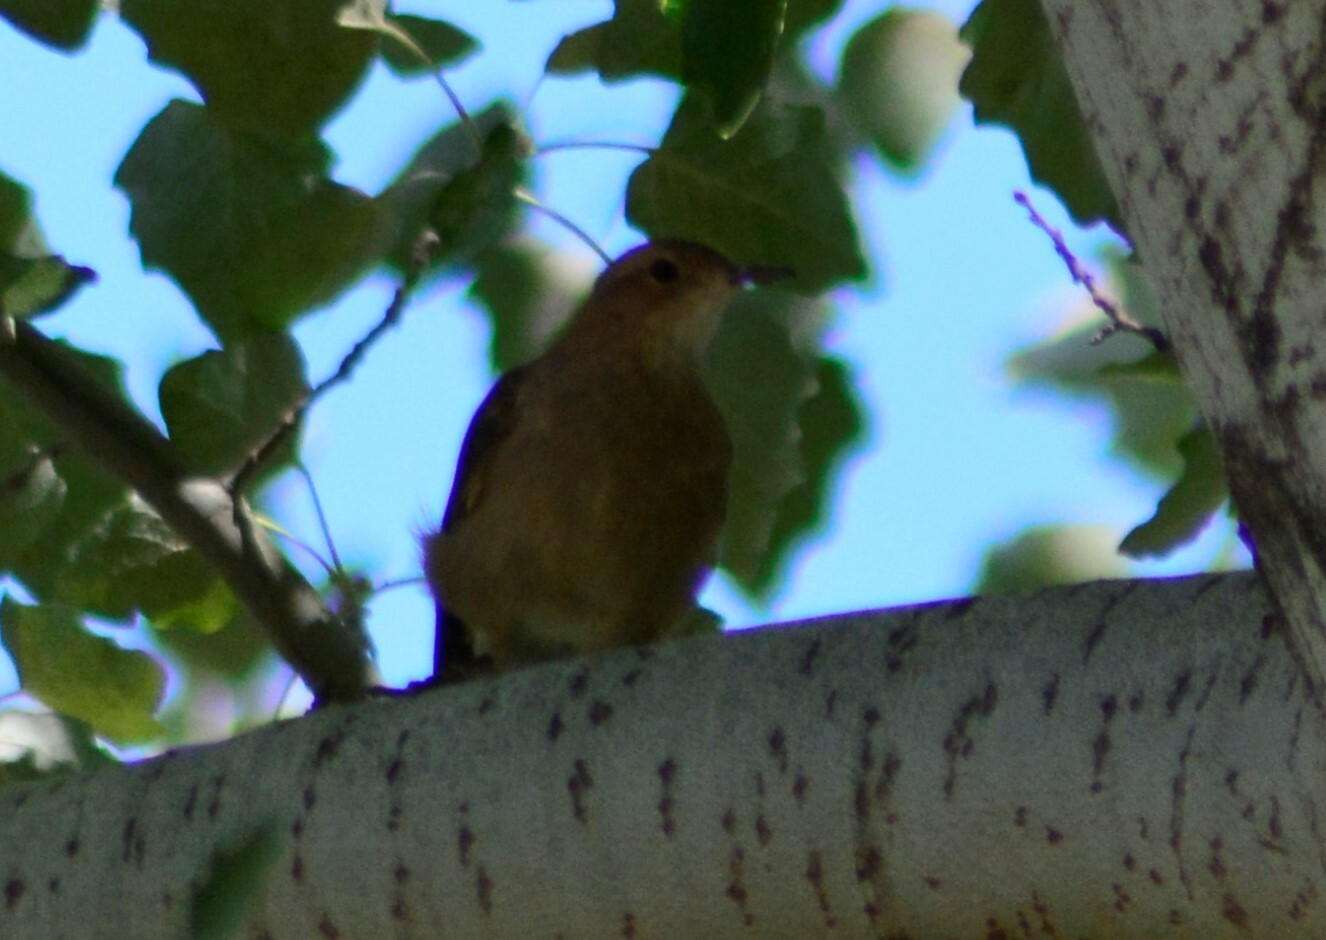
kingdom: Animalia
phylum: Chordata
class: Aves
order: Passeriformes
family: Furnariidae
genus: Furnarius
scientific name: Furnarius rufus
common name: Rufous hornero
